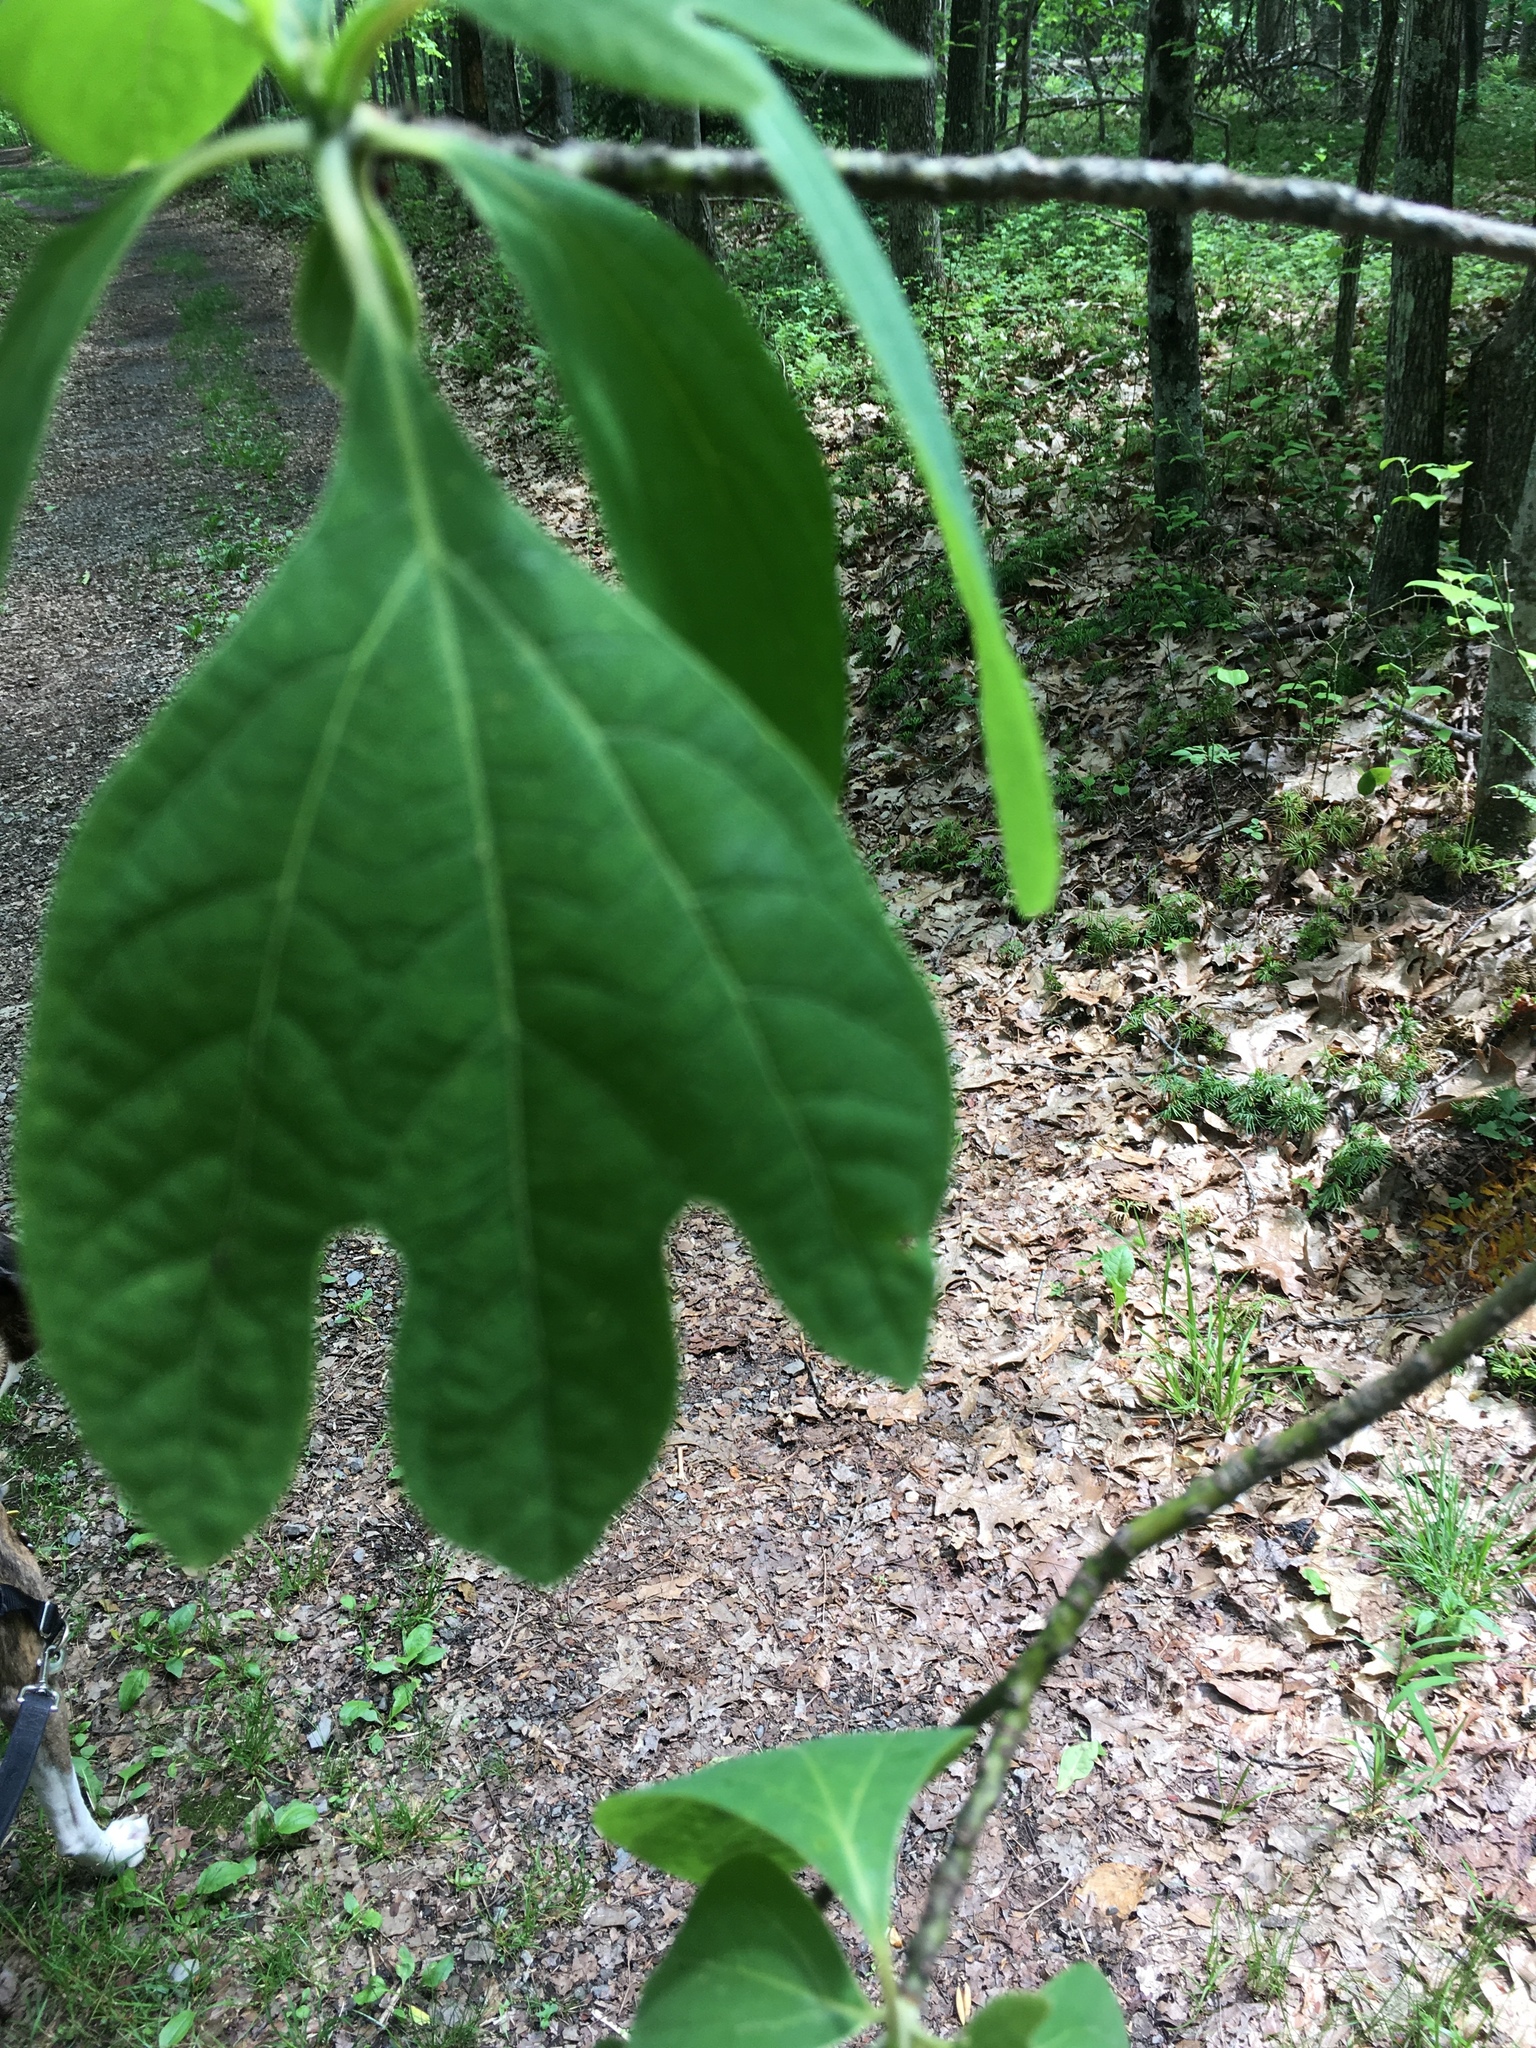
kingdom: Plantae
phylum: Tracheophyta
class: Magnoliopsida
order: Laurales
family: Lauraceae
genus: Sassafras
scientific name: Sassafras albidum
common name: Sassafras
